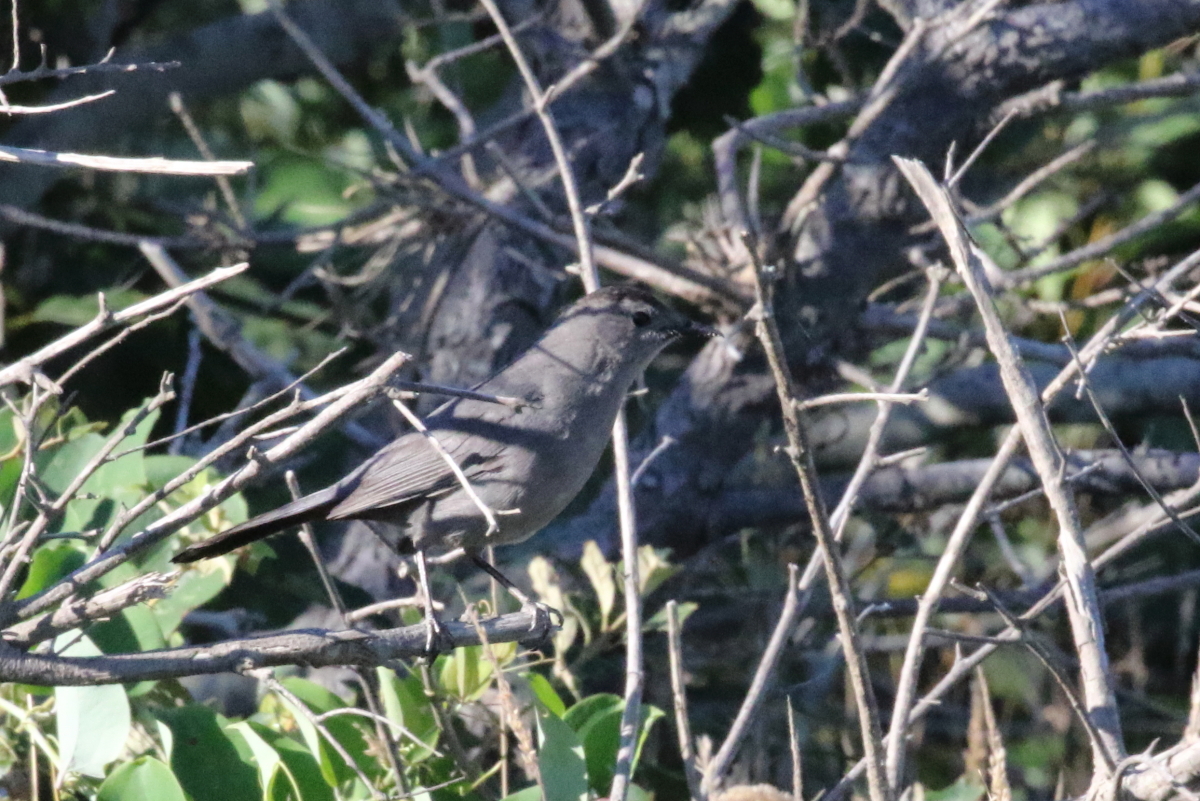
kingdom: Animalia
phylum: Chordata
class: Aves
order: Passeriformes
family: Mimidae
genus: Dumetella
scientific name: Dumetella carolinensis
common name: Gray catbird
